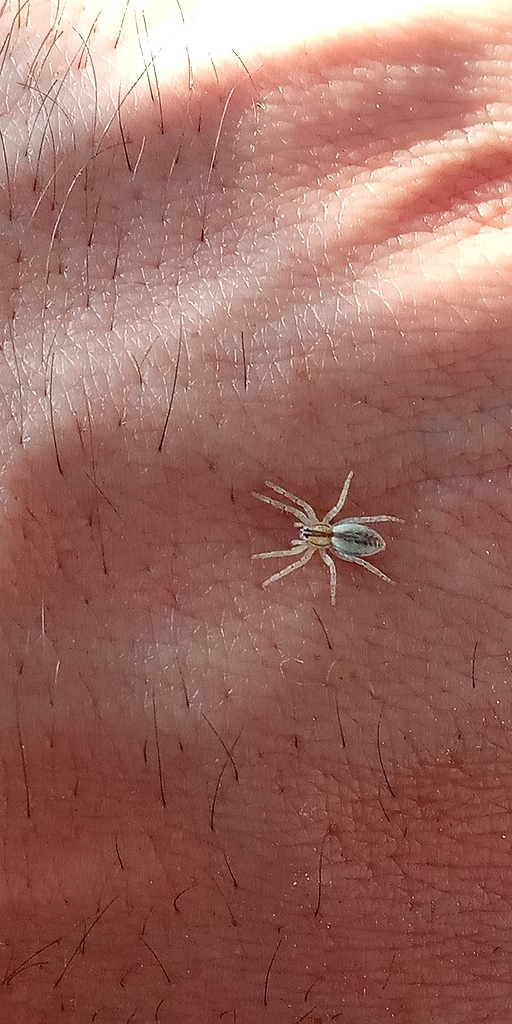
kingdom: Animalia
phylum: Arthropoda
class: Arachnida
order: Araneae
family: Anyphaenidae
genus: Arachosia
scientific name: Arachosia praesignis
